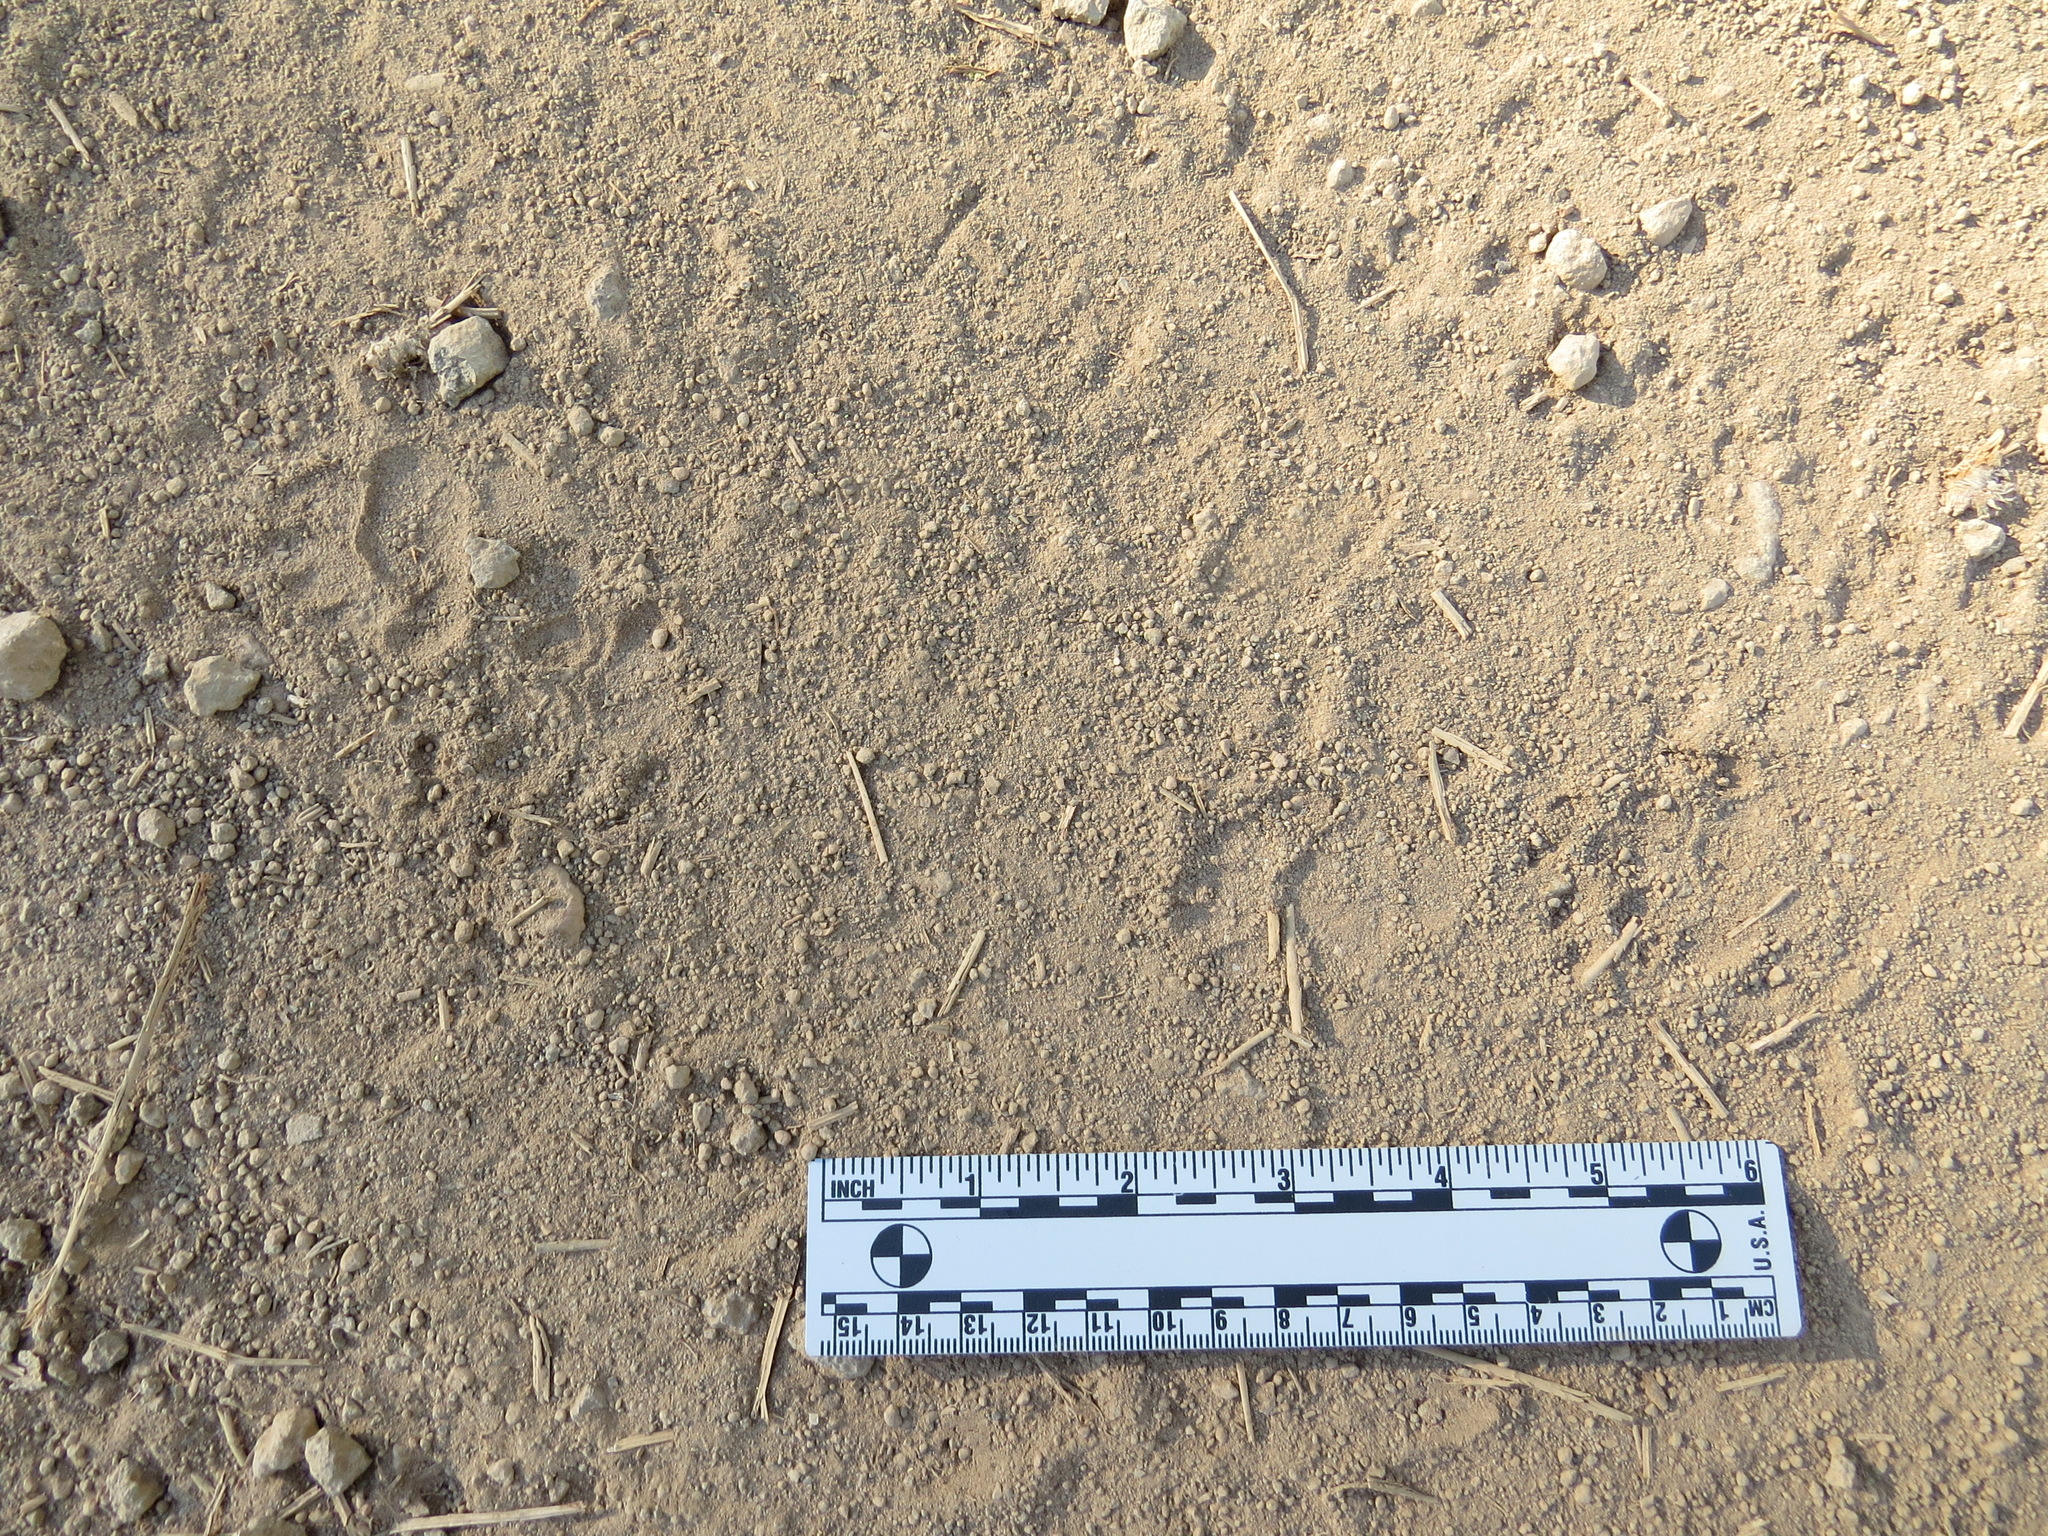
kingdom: Animalia
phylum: Chordata
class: Mammalia
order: Carnivora
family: Mephitidae
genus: Mephitis
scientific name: Mephitis mephitis
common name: Striped skunk
